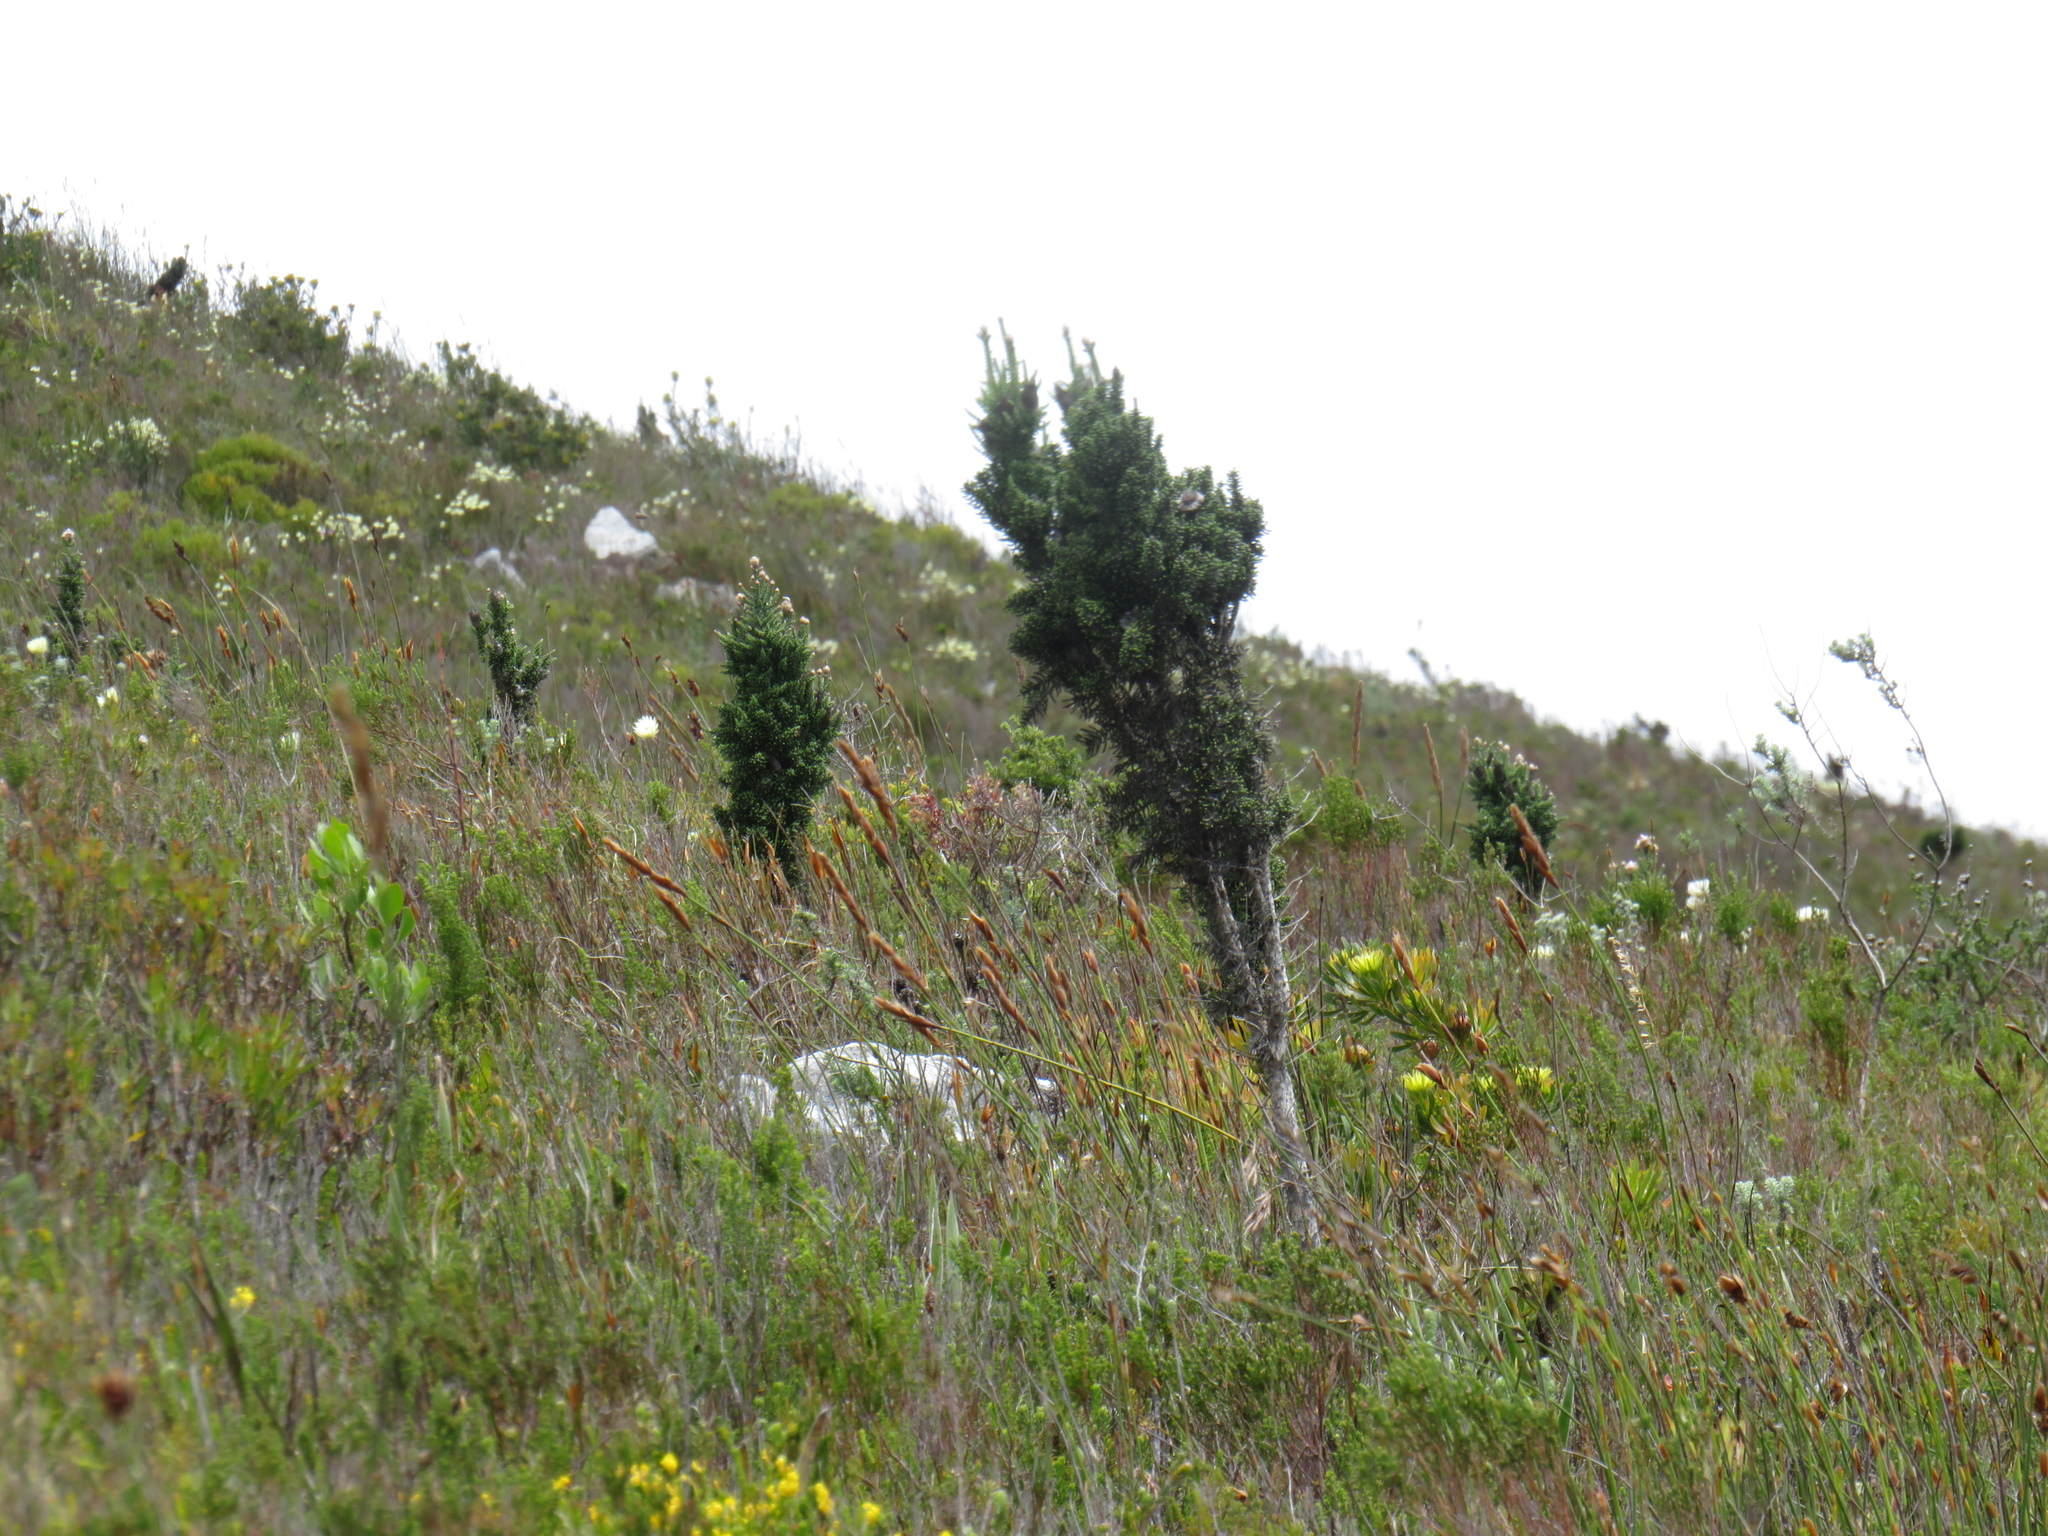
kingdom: Plantae
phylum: Tracheophyta
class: Magnoliopsida
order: Asterales
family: Asteraceae
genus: Phaenocoma
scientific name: Phaenocoma prolifera
